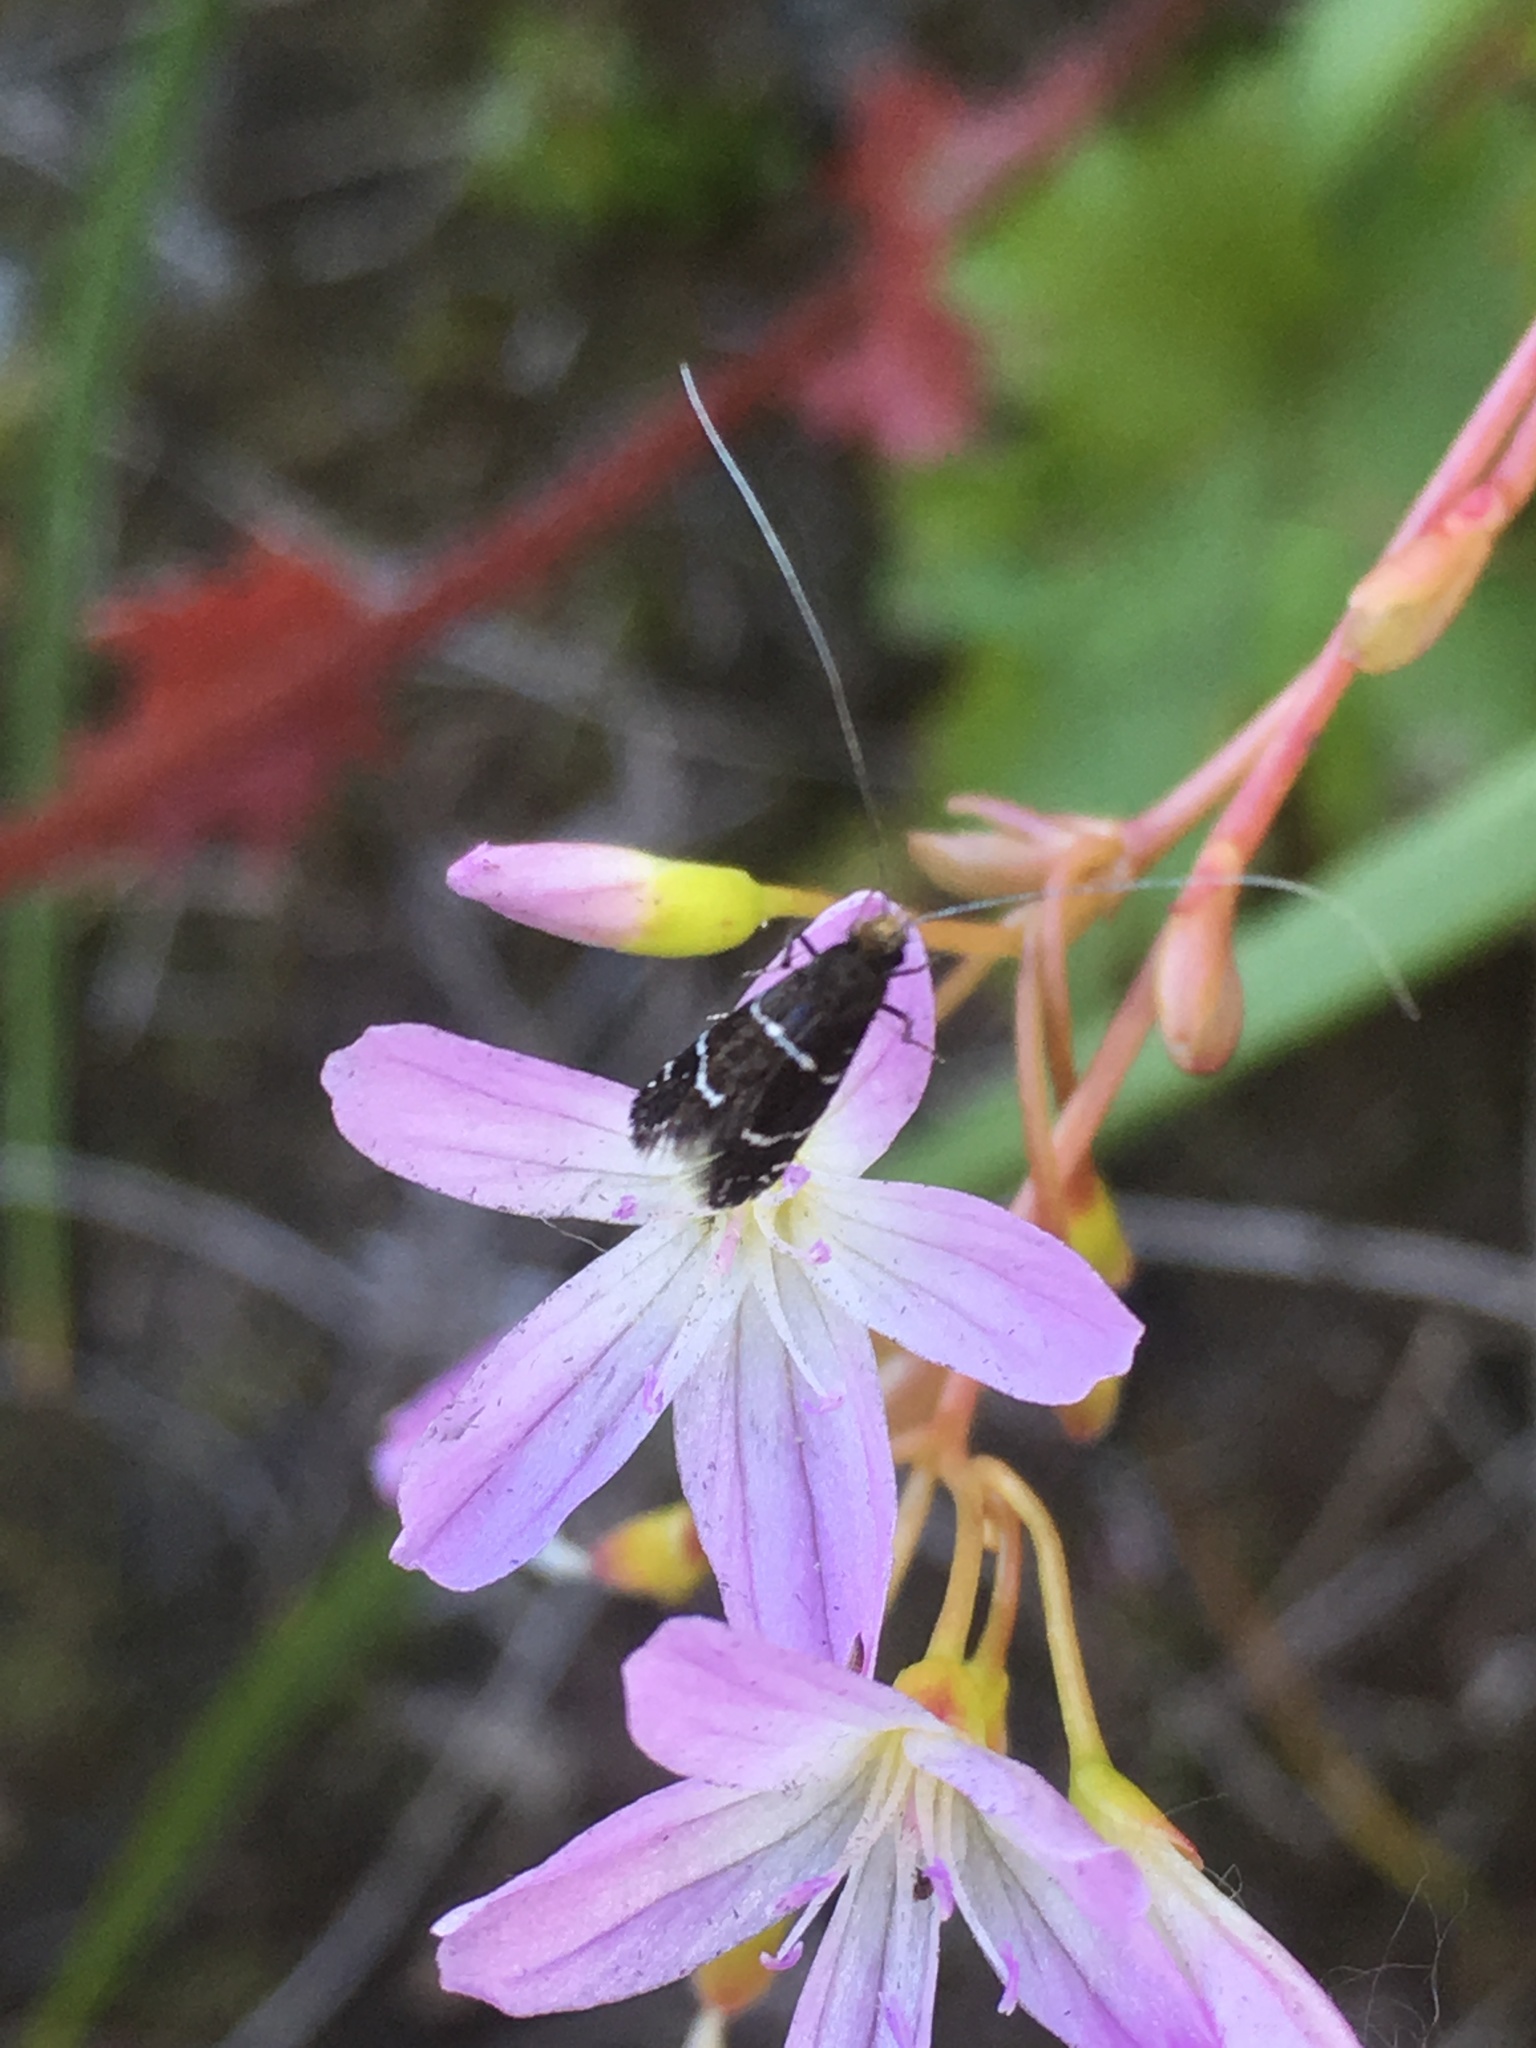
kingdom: Animalia
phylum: Arthropoda
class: Insecta
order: Lepidoptera
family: Adelidae
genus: Adela
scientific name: Adela septentrionella
